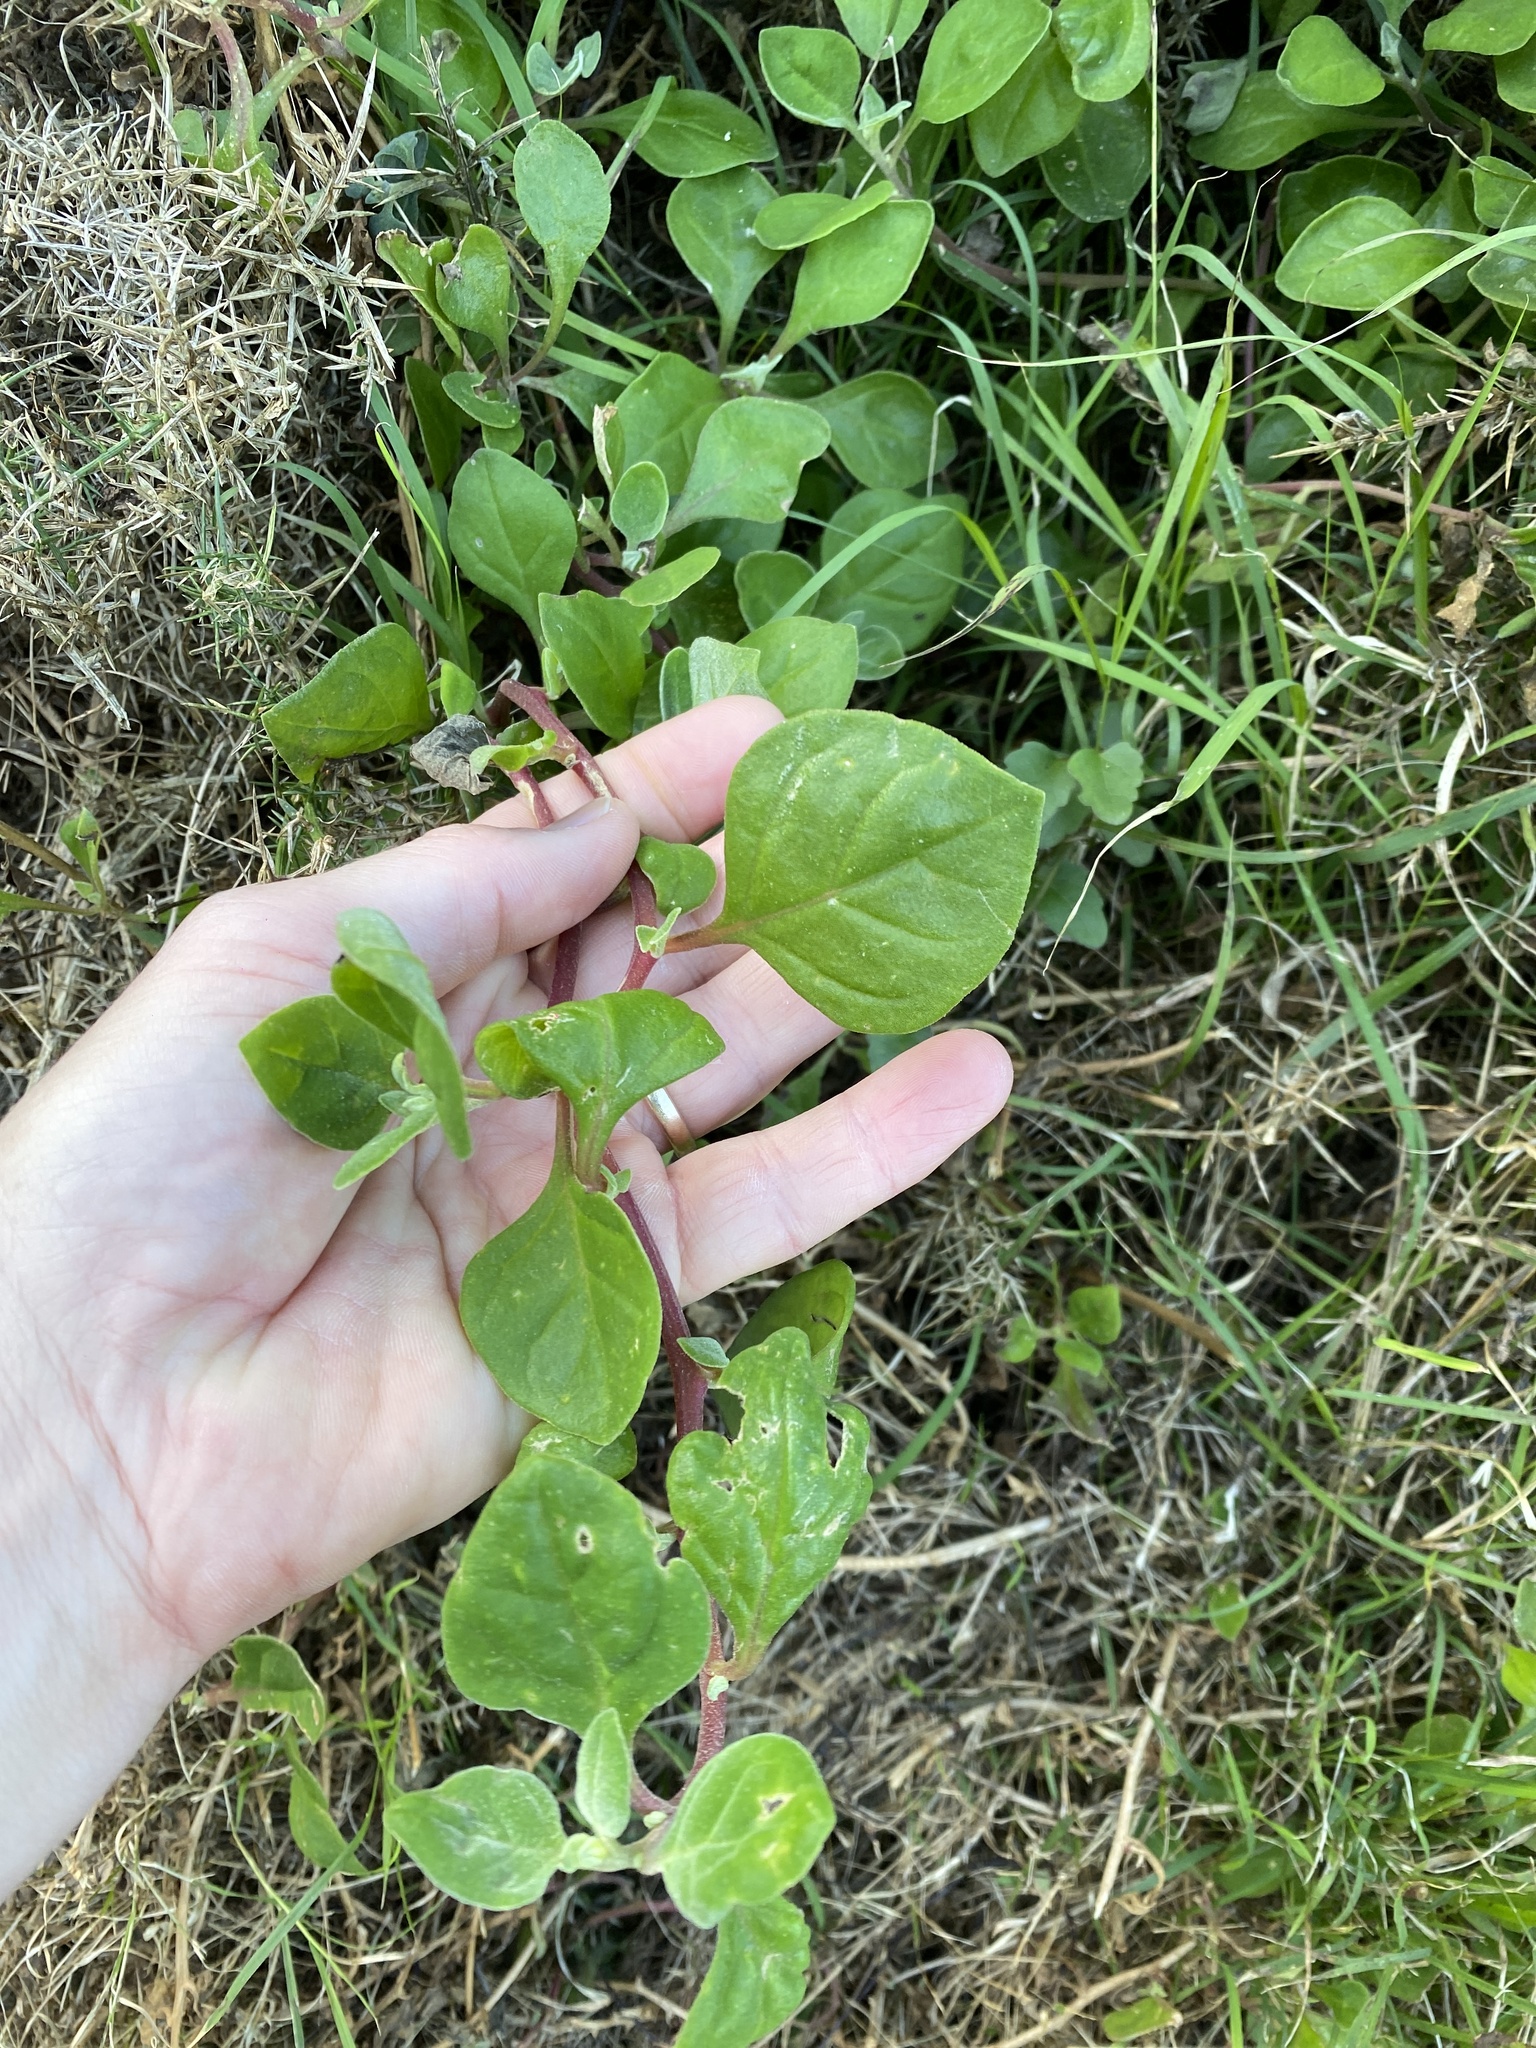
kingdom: Plantae
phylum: Tracheophyta
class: Magnoliopsida
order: Caryophyllales
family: Aizoaceae
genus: Tetragonia
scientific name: Tetragonia implexicoma
